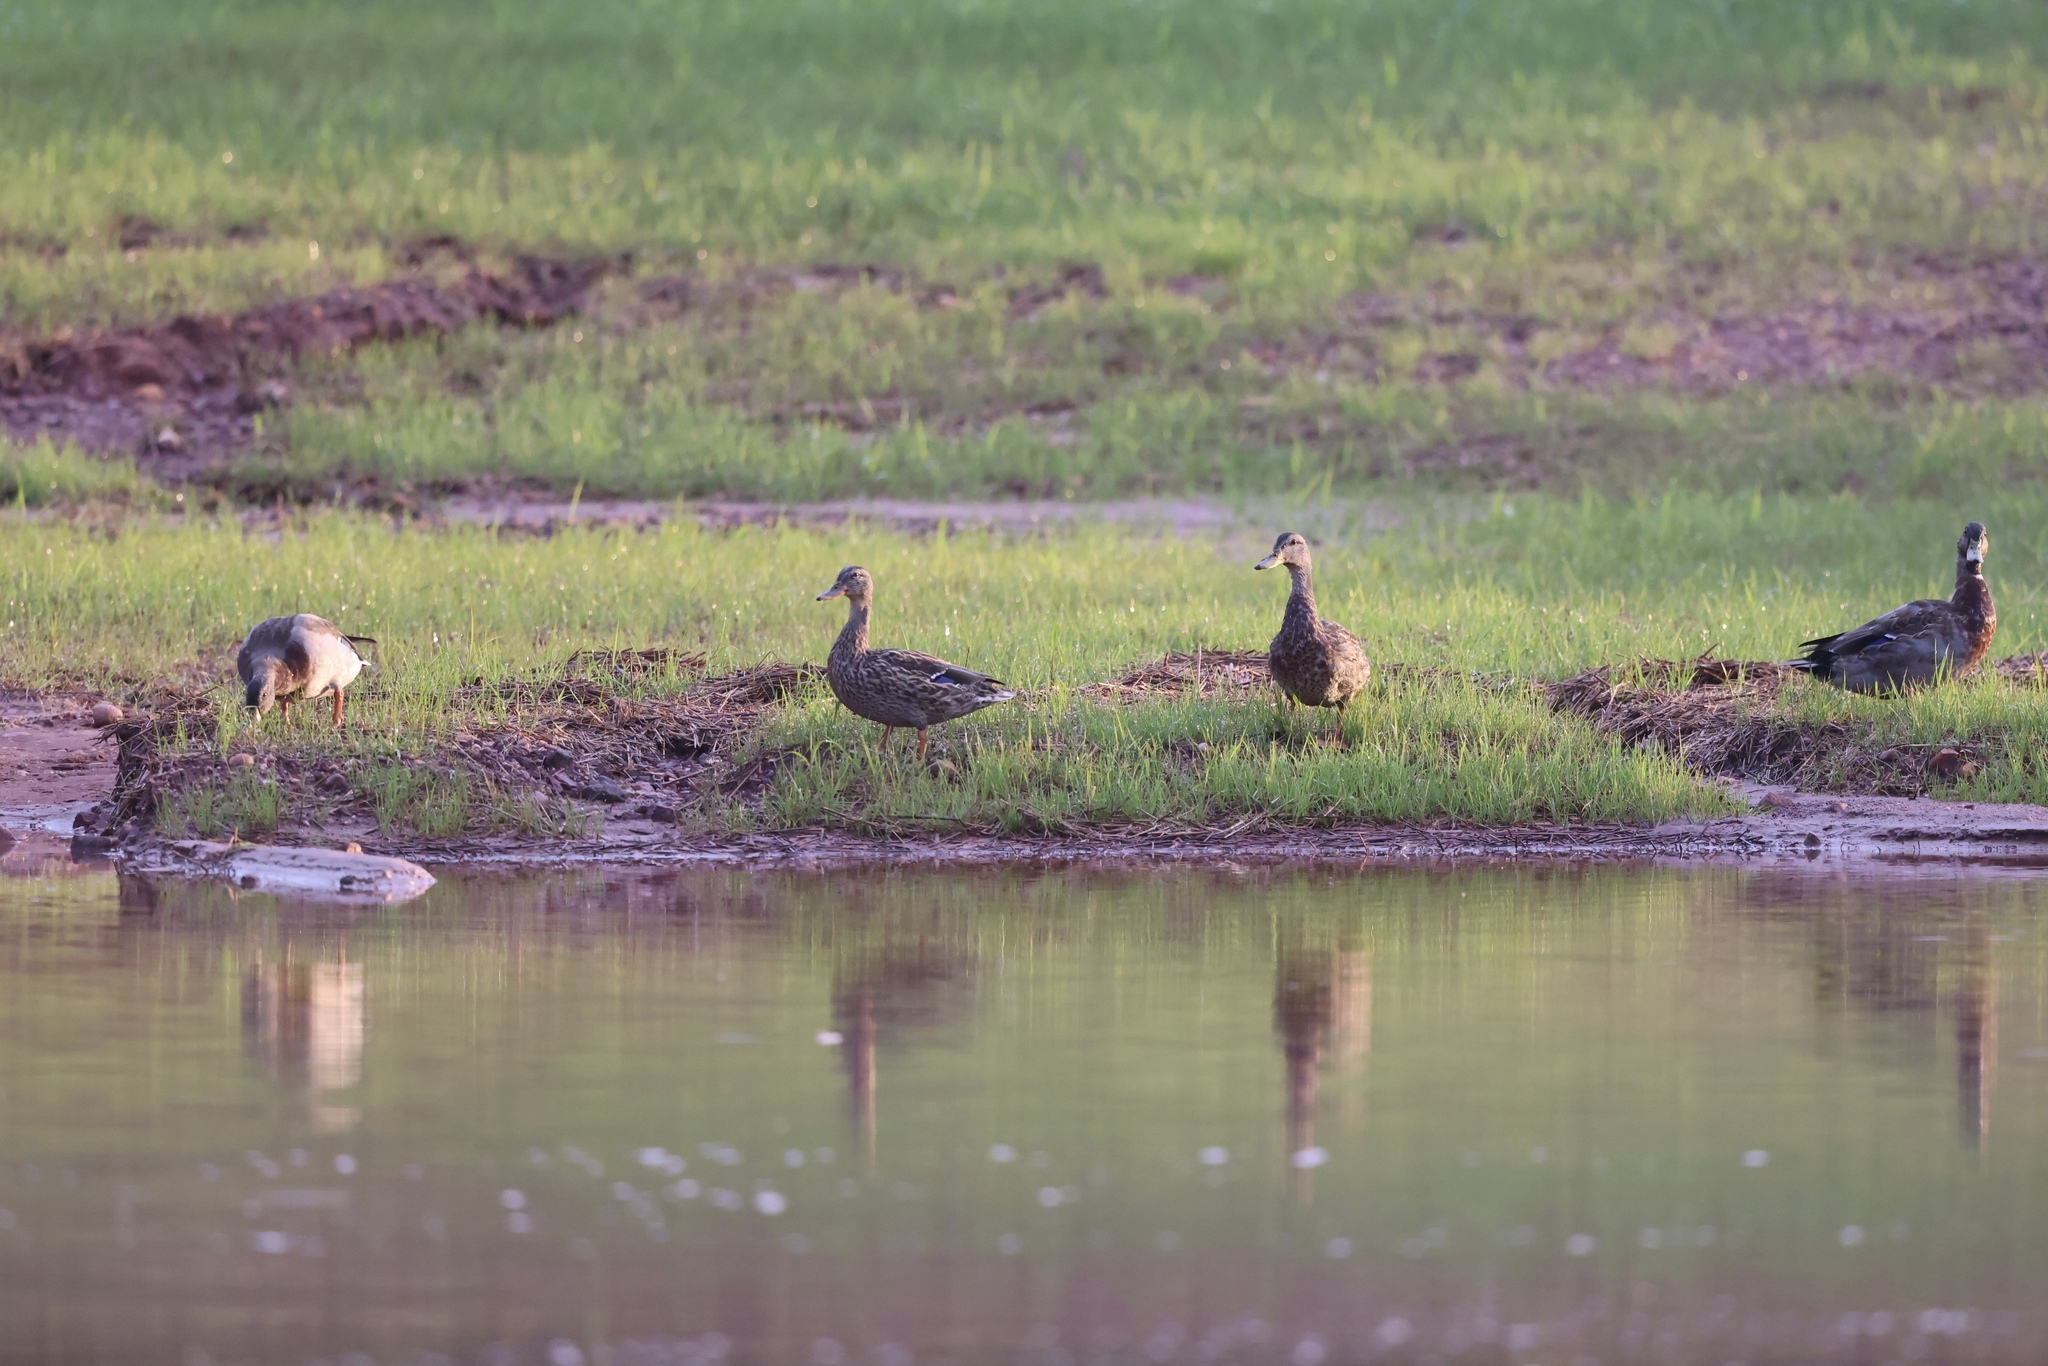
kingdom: Animalia
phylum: Chordata
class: Aves
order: Anseriformes
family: Anatidae
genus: Anas
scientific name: Anas platyrhynchos
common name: Mallard
